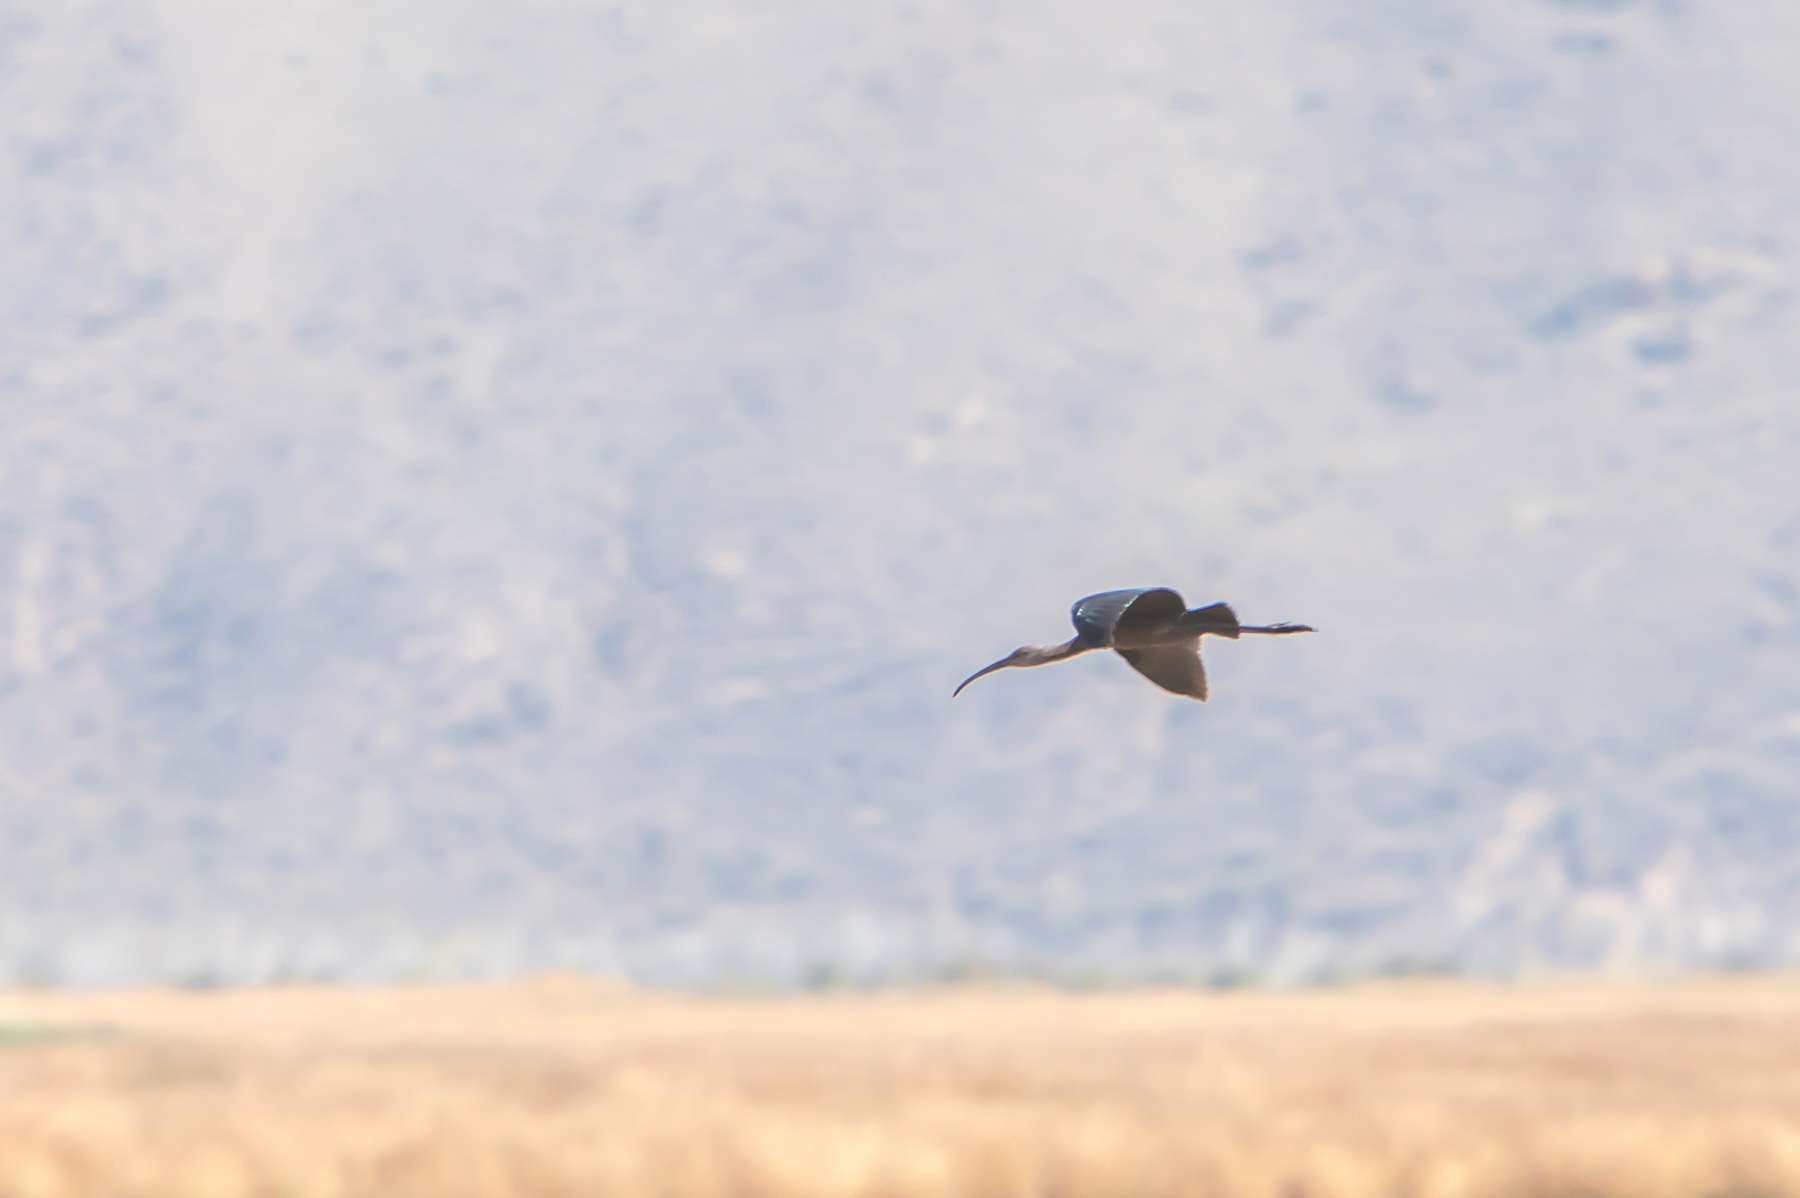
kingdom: Animalia
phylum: Chordata
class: Aves
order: Pelecaniformes
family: Threskiornithidae
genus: Plegadis
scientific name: Plegadis chihi
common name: White-faced ibis
